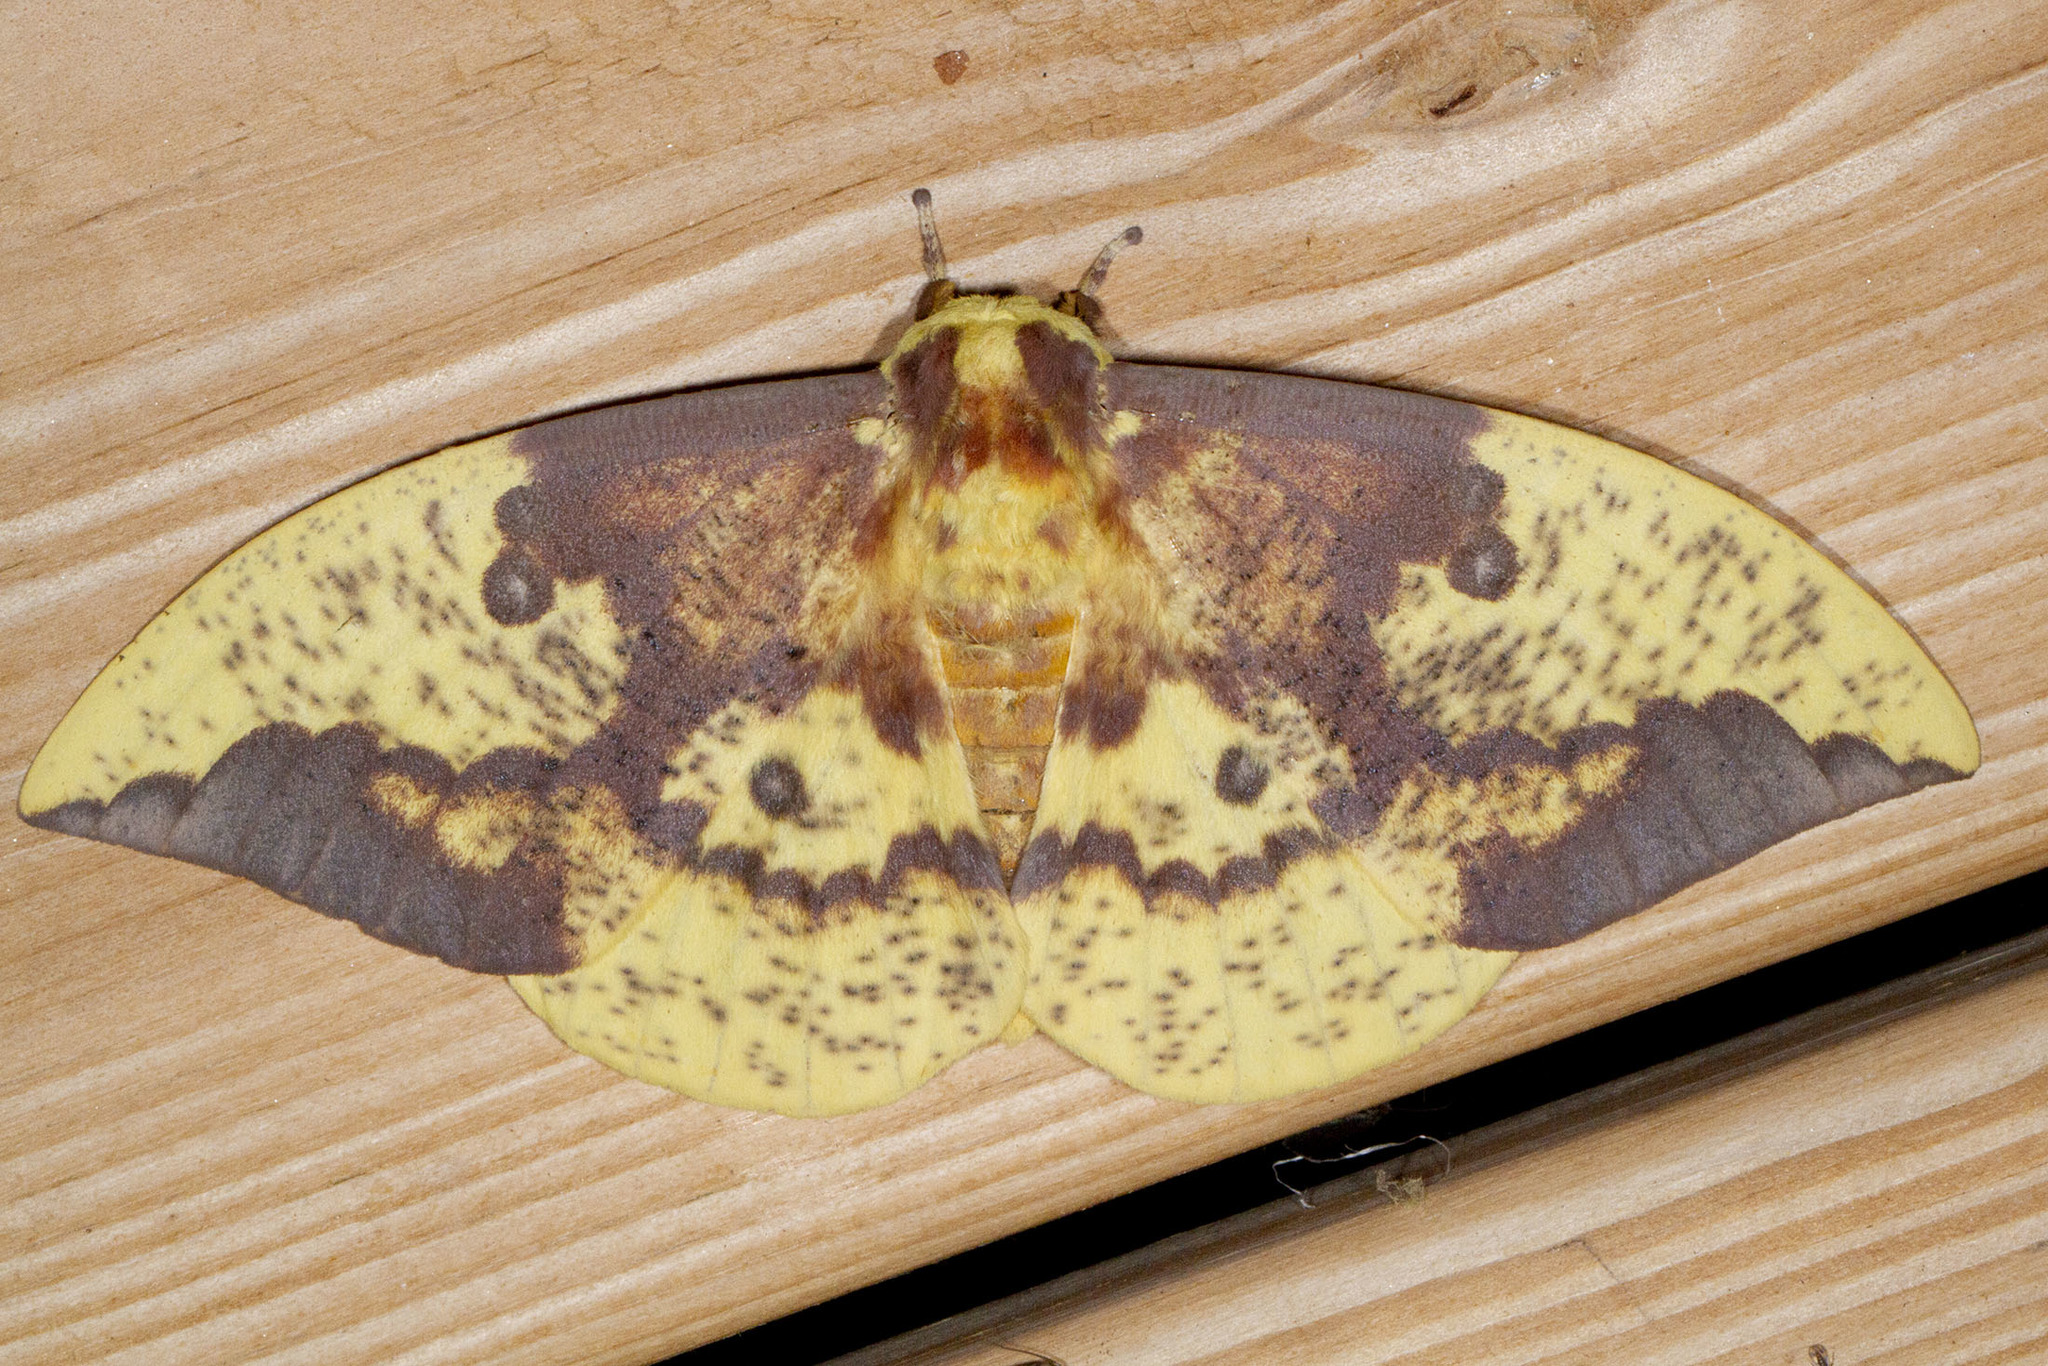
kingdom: Animalia
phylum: Arthropoda
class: Insecta
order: Lepidoptera
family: Saturniidae
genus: Eacles
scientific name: Eacles imperialis
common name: Imperial moth
